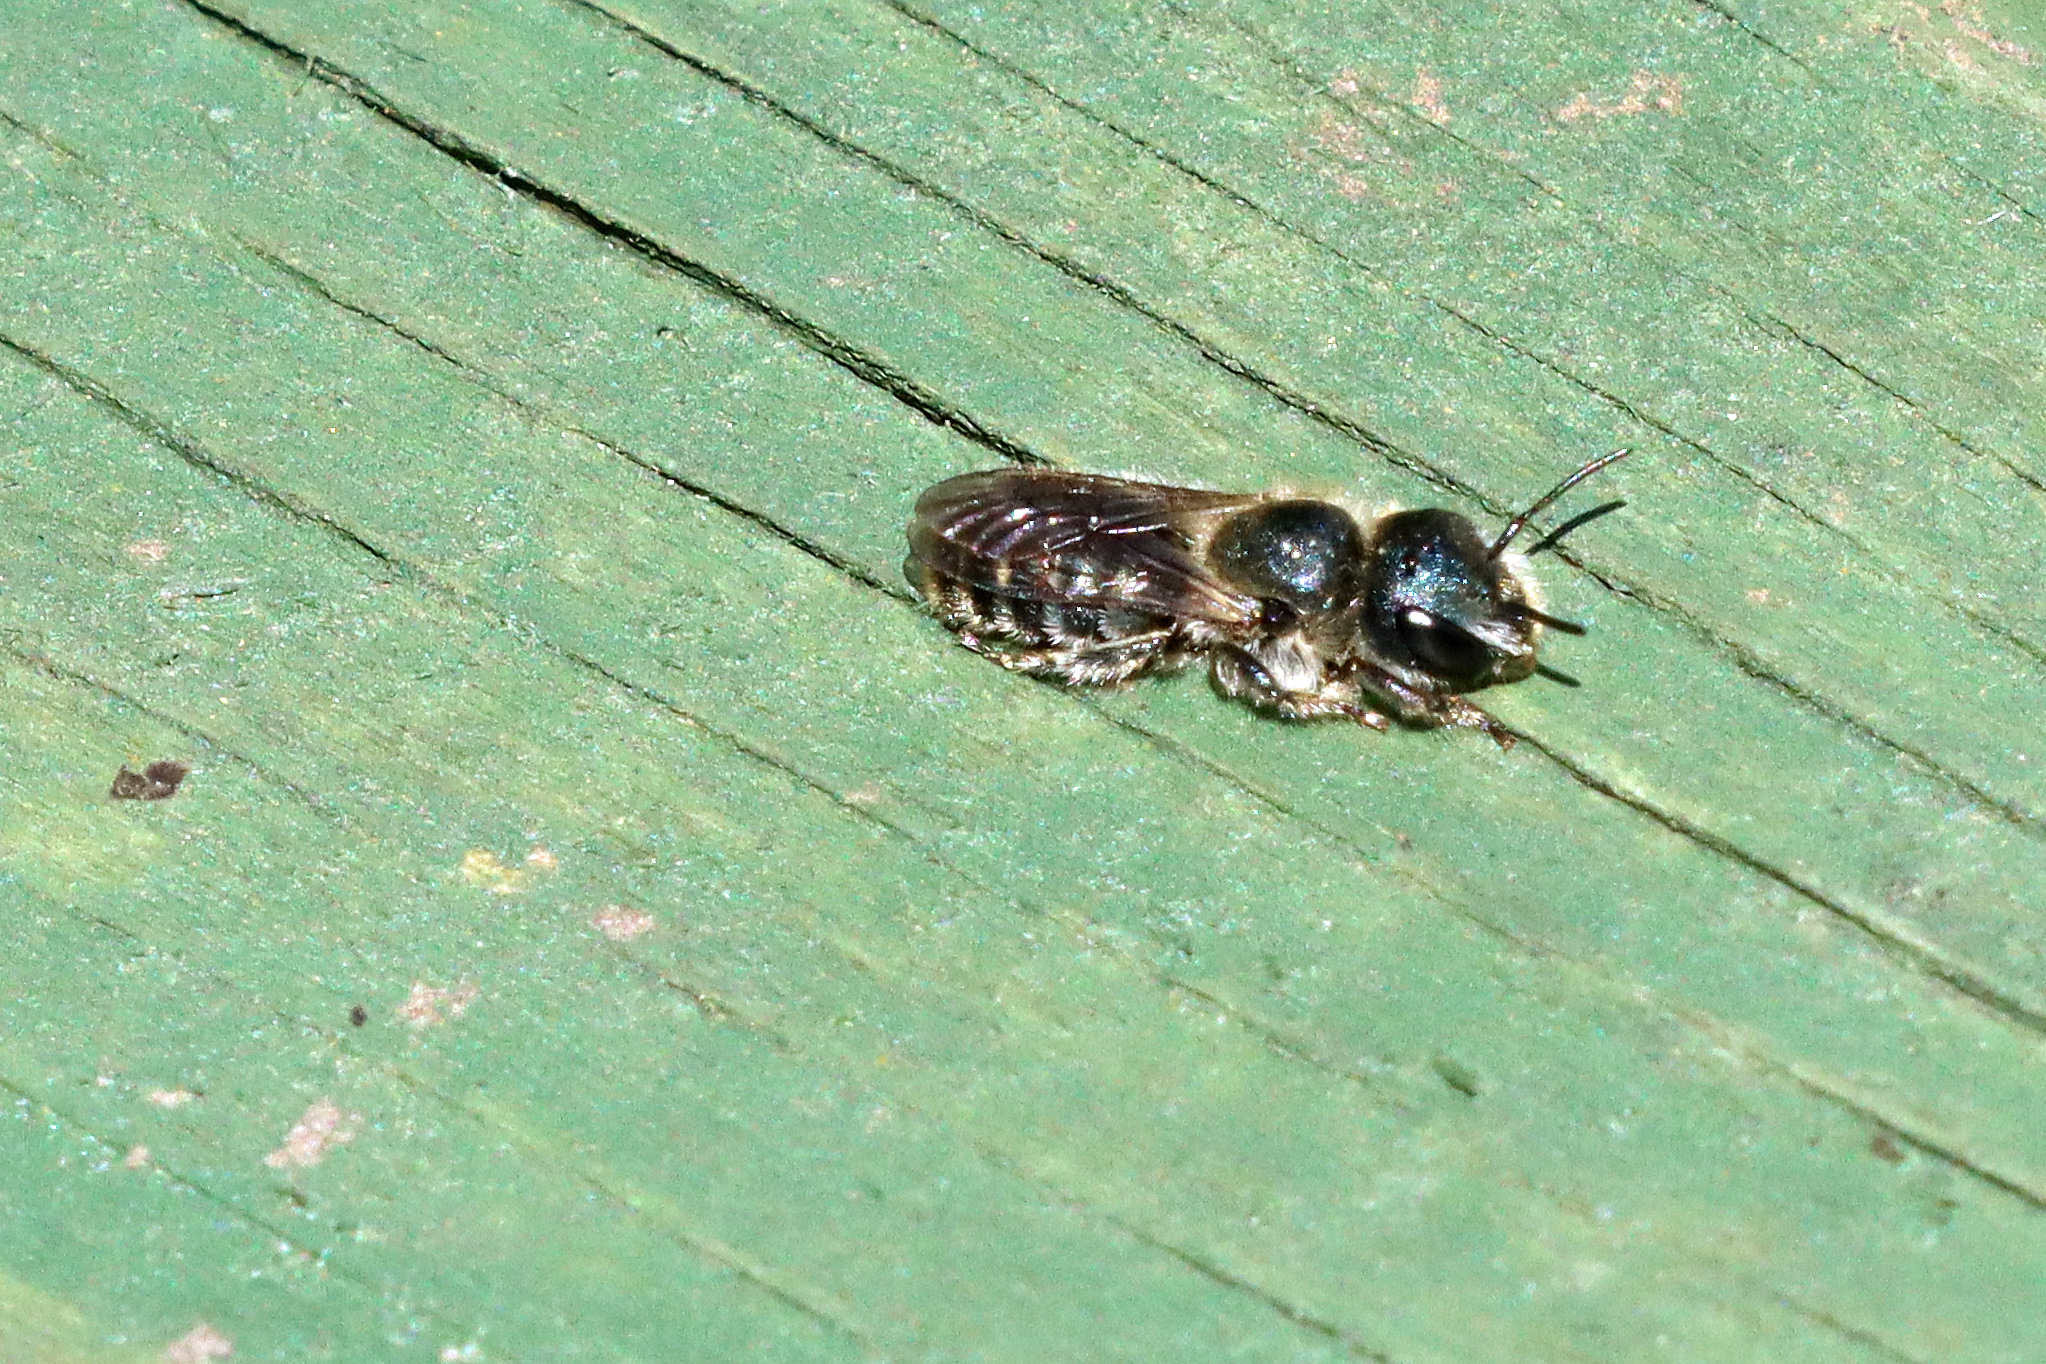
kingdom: Animalia
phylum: Arthropoda
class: Insecta
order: Hymenoptera
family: Megachilidae
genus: Osmia
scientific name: Osmia caerulescens
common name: Blue mason bee
